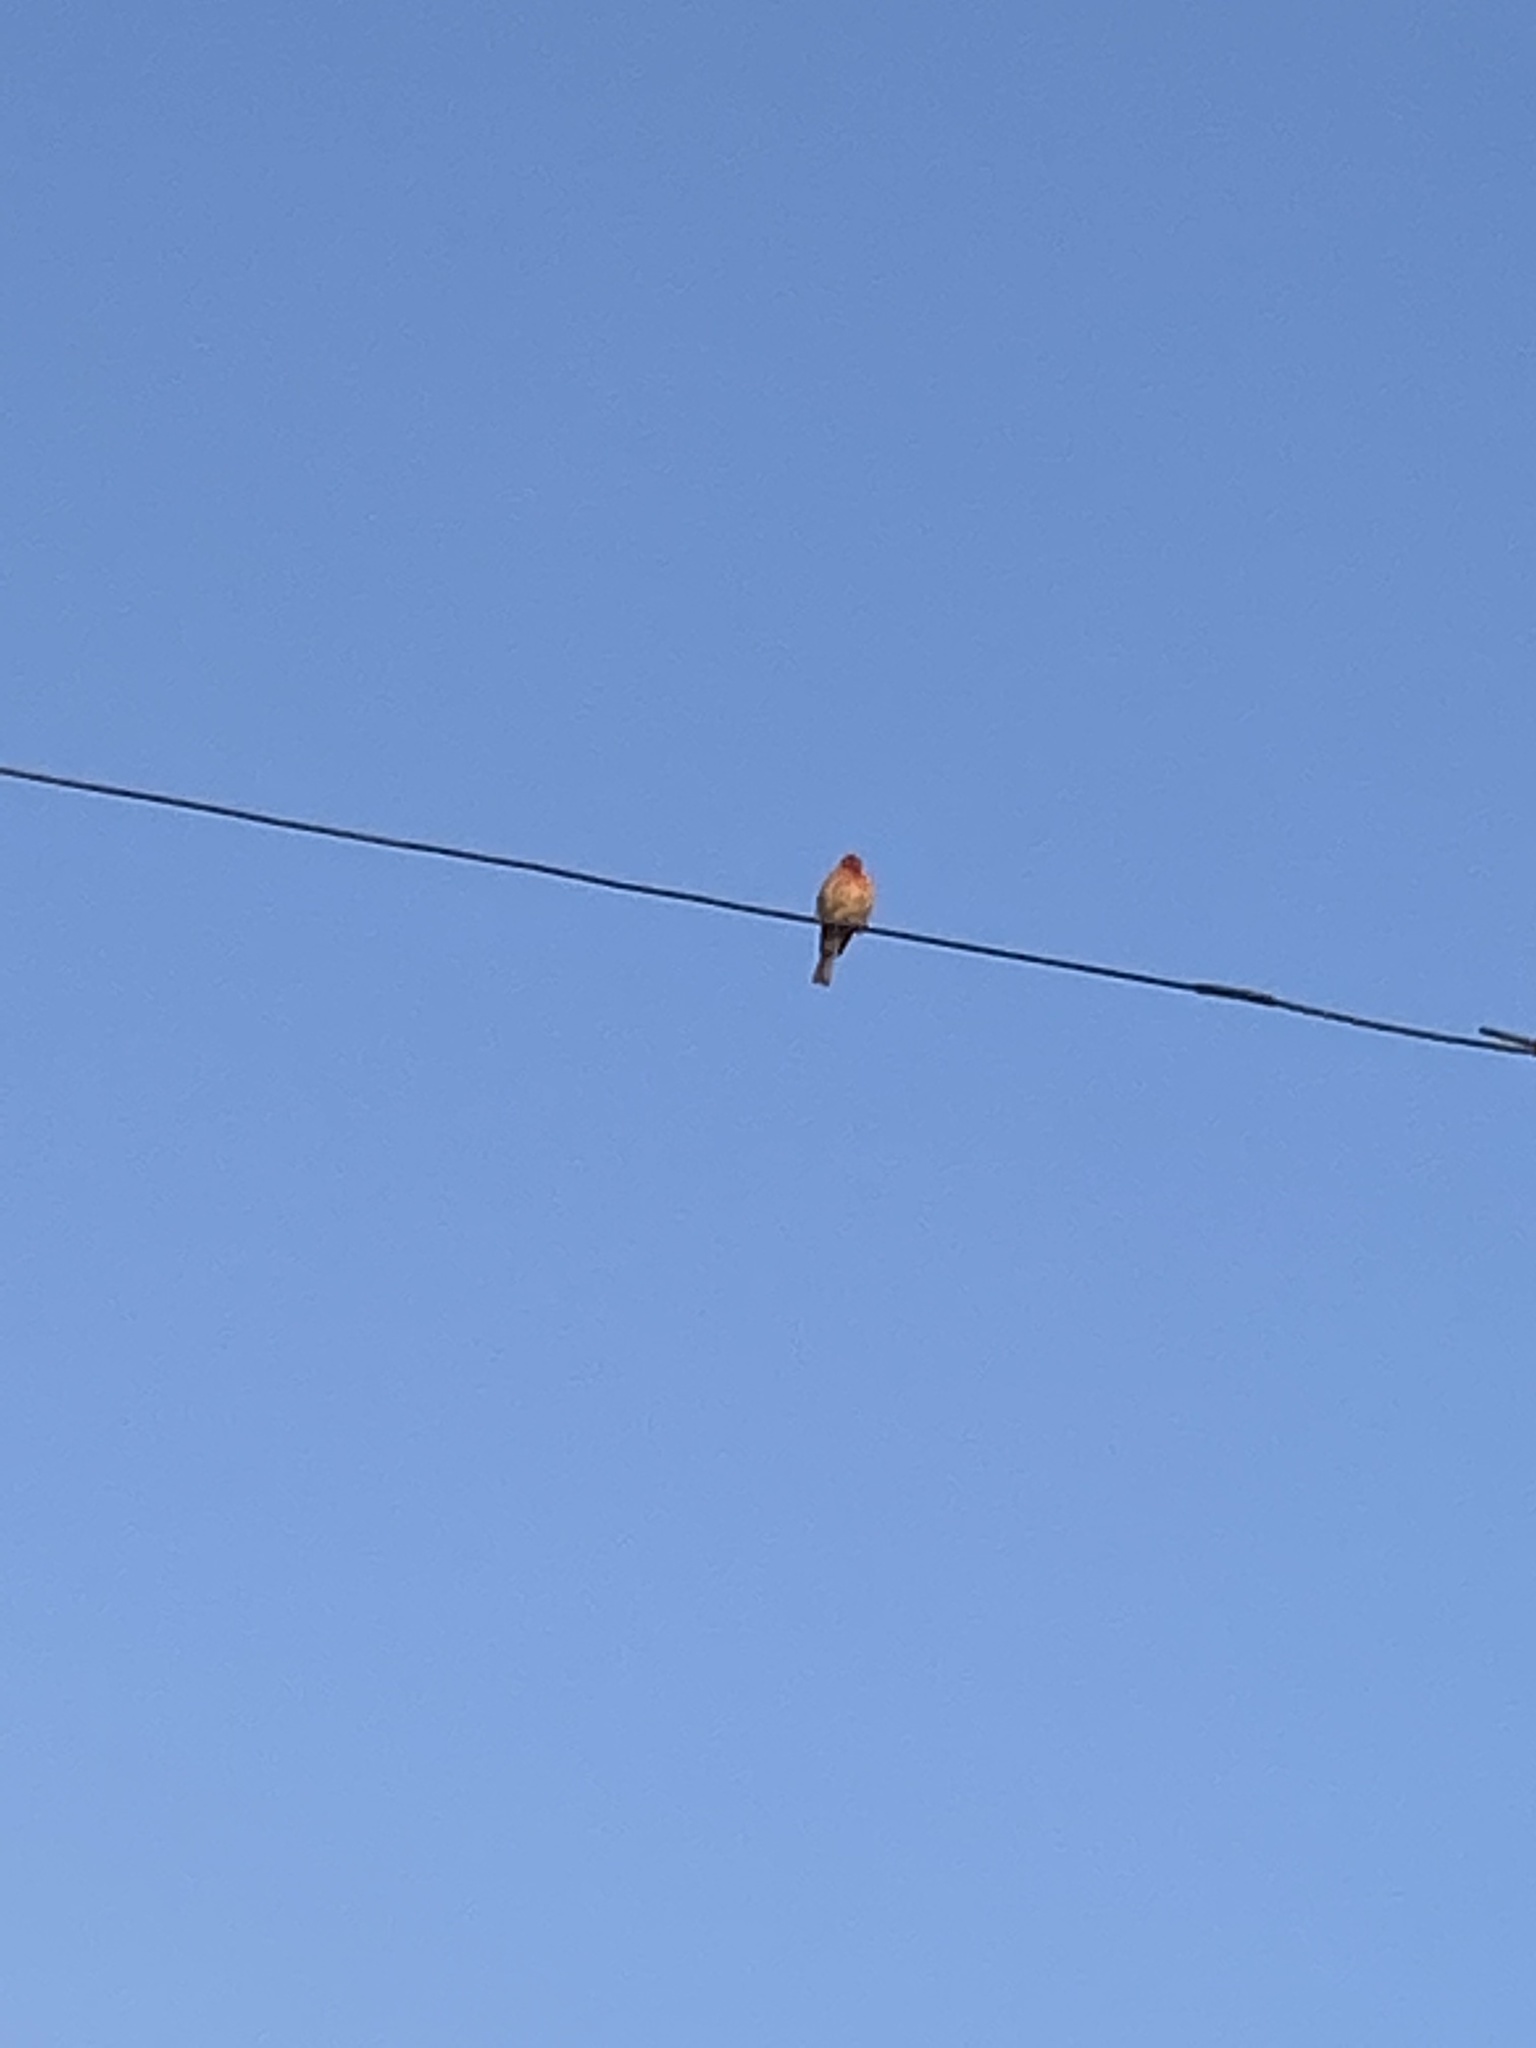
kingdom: Animalia
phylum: Chordata
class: Aves
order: Passeriformes
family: Fringillidae
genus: Haemorhous
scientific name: Haemorhous mexicanus
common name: House finch
